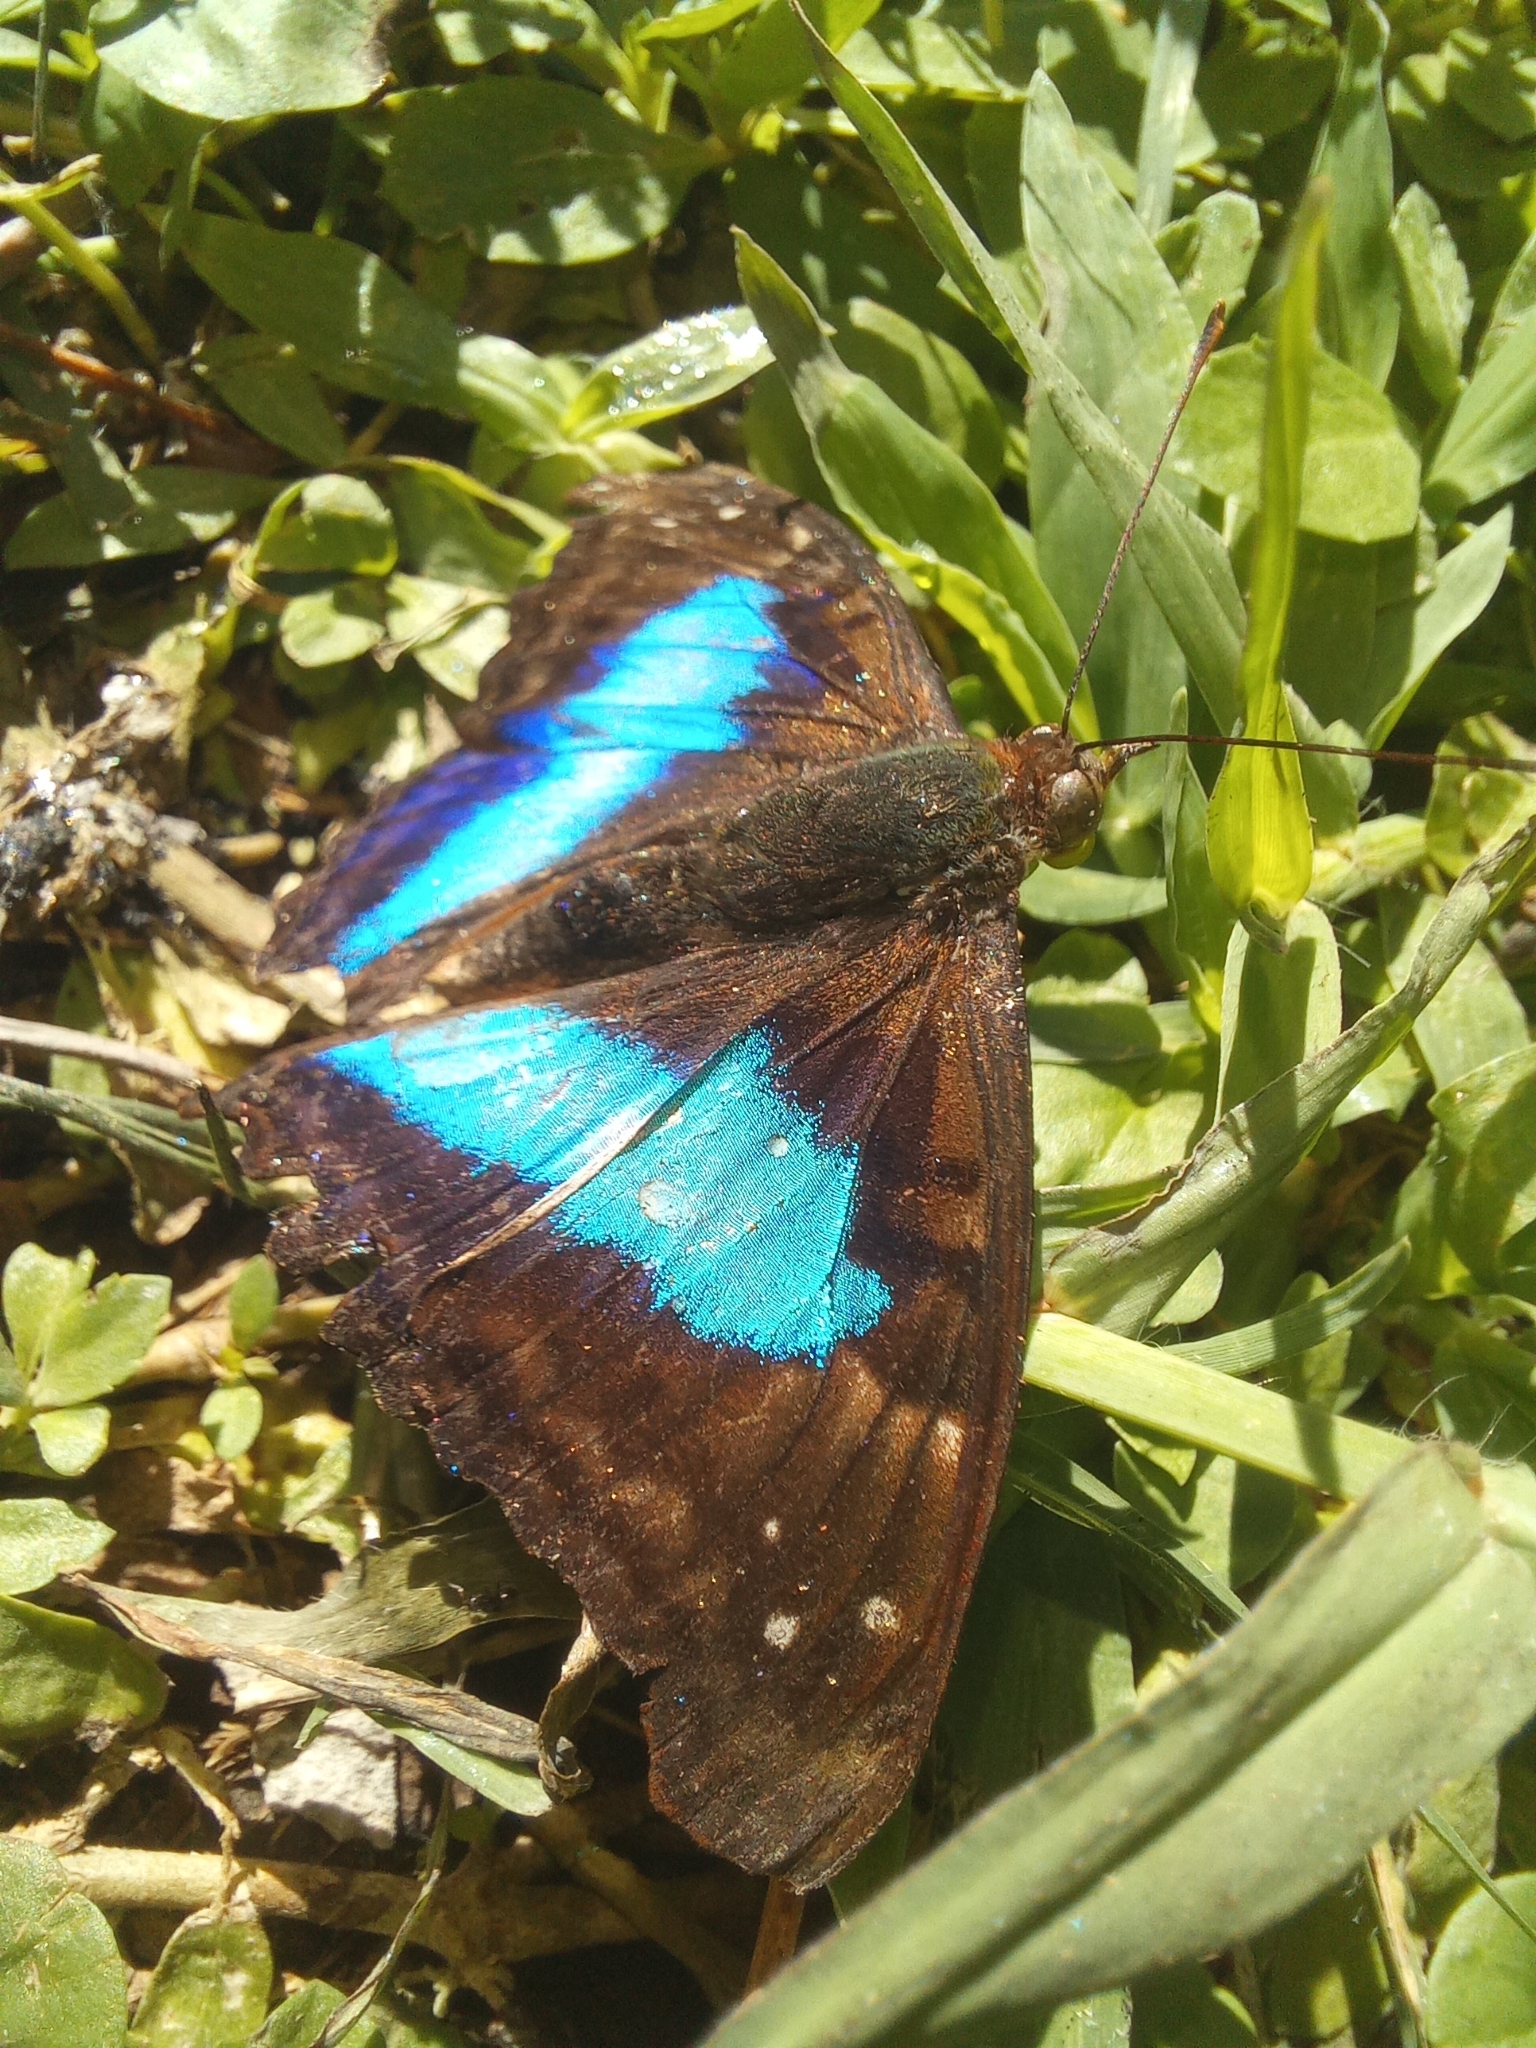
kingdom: Animalia
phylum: Arthropoda
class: Insecta
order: Lepidoptera
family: Nymphalidae
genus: Doxocopa
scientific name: Doxocopa laurentia
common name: Turquoise emperor
